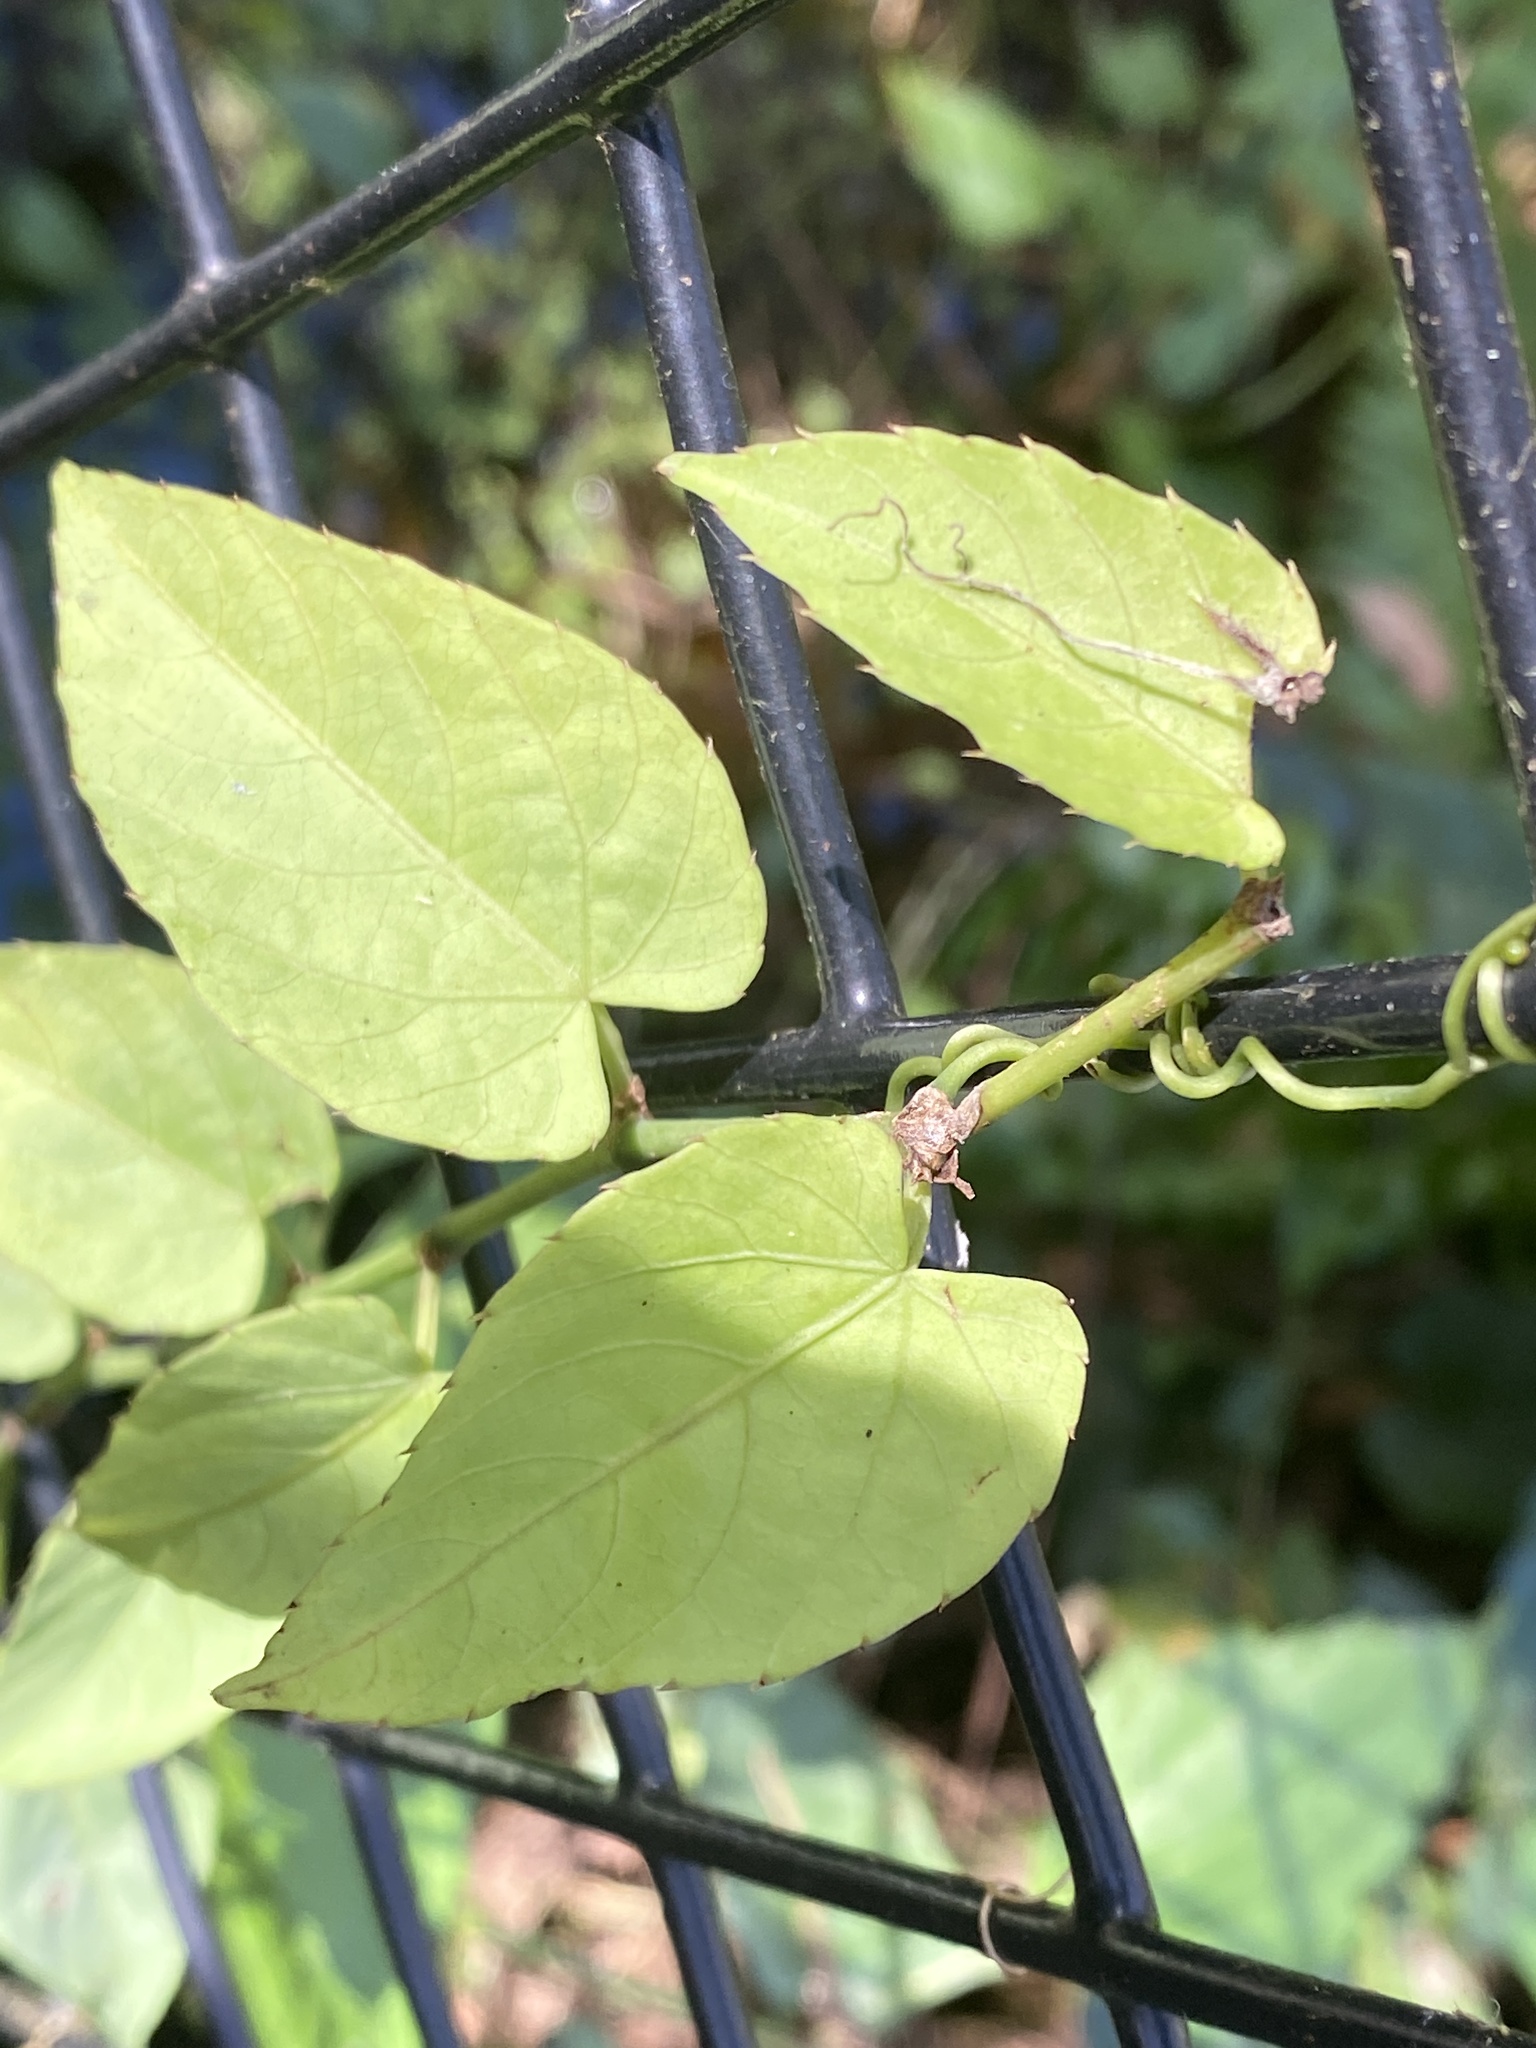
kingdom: Plantae
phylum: Tracheophyta
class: Magnoliopsida
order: Vitales
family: Vitaceae
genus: Cissus
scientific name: Cissus verticillata
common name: Princess vine
